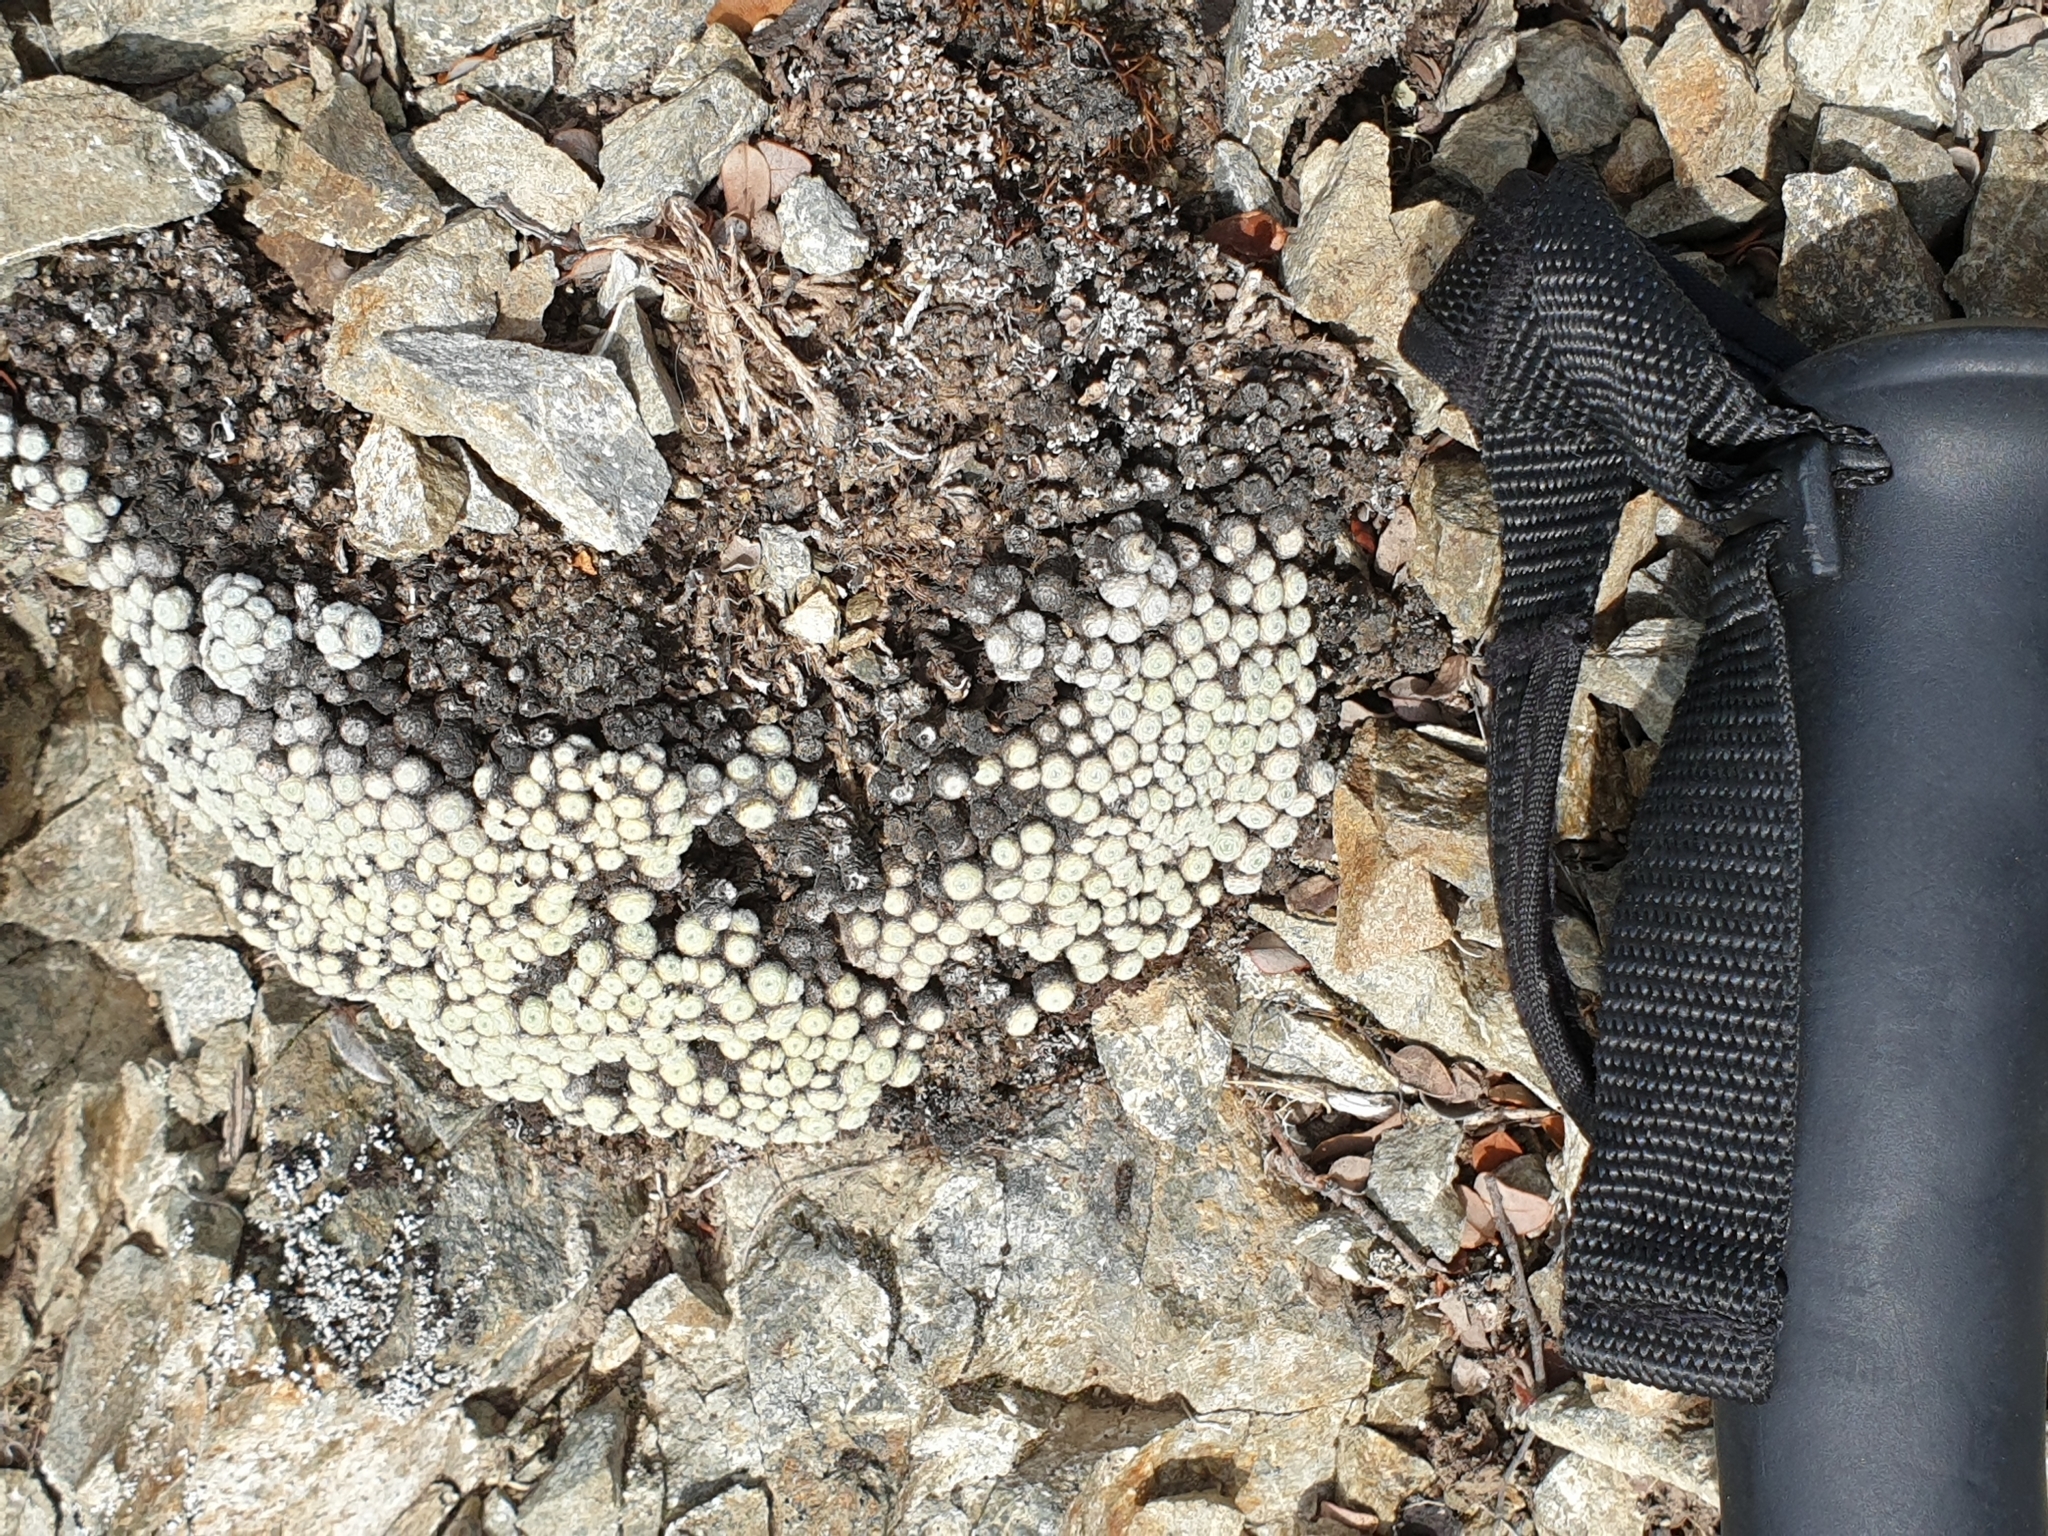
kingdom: Plantae
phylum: Tracheophyta
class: Magnoliopsida
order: Asterales
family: Asteraceae
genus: Raoulia
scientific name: Raoulia mammillaris
